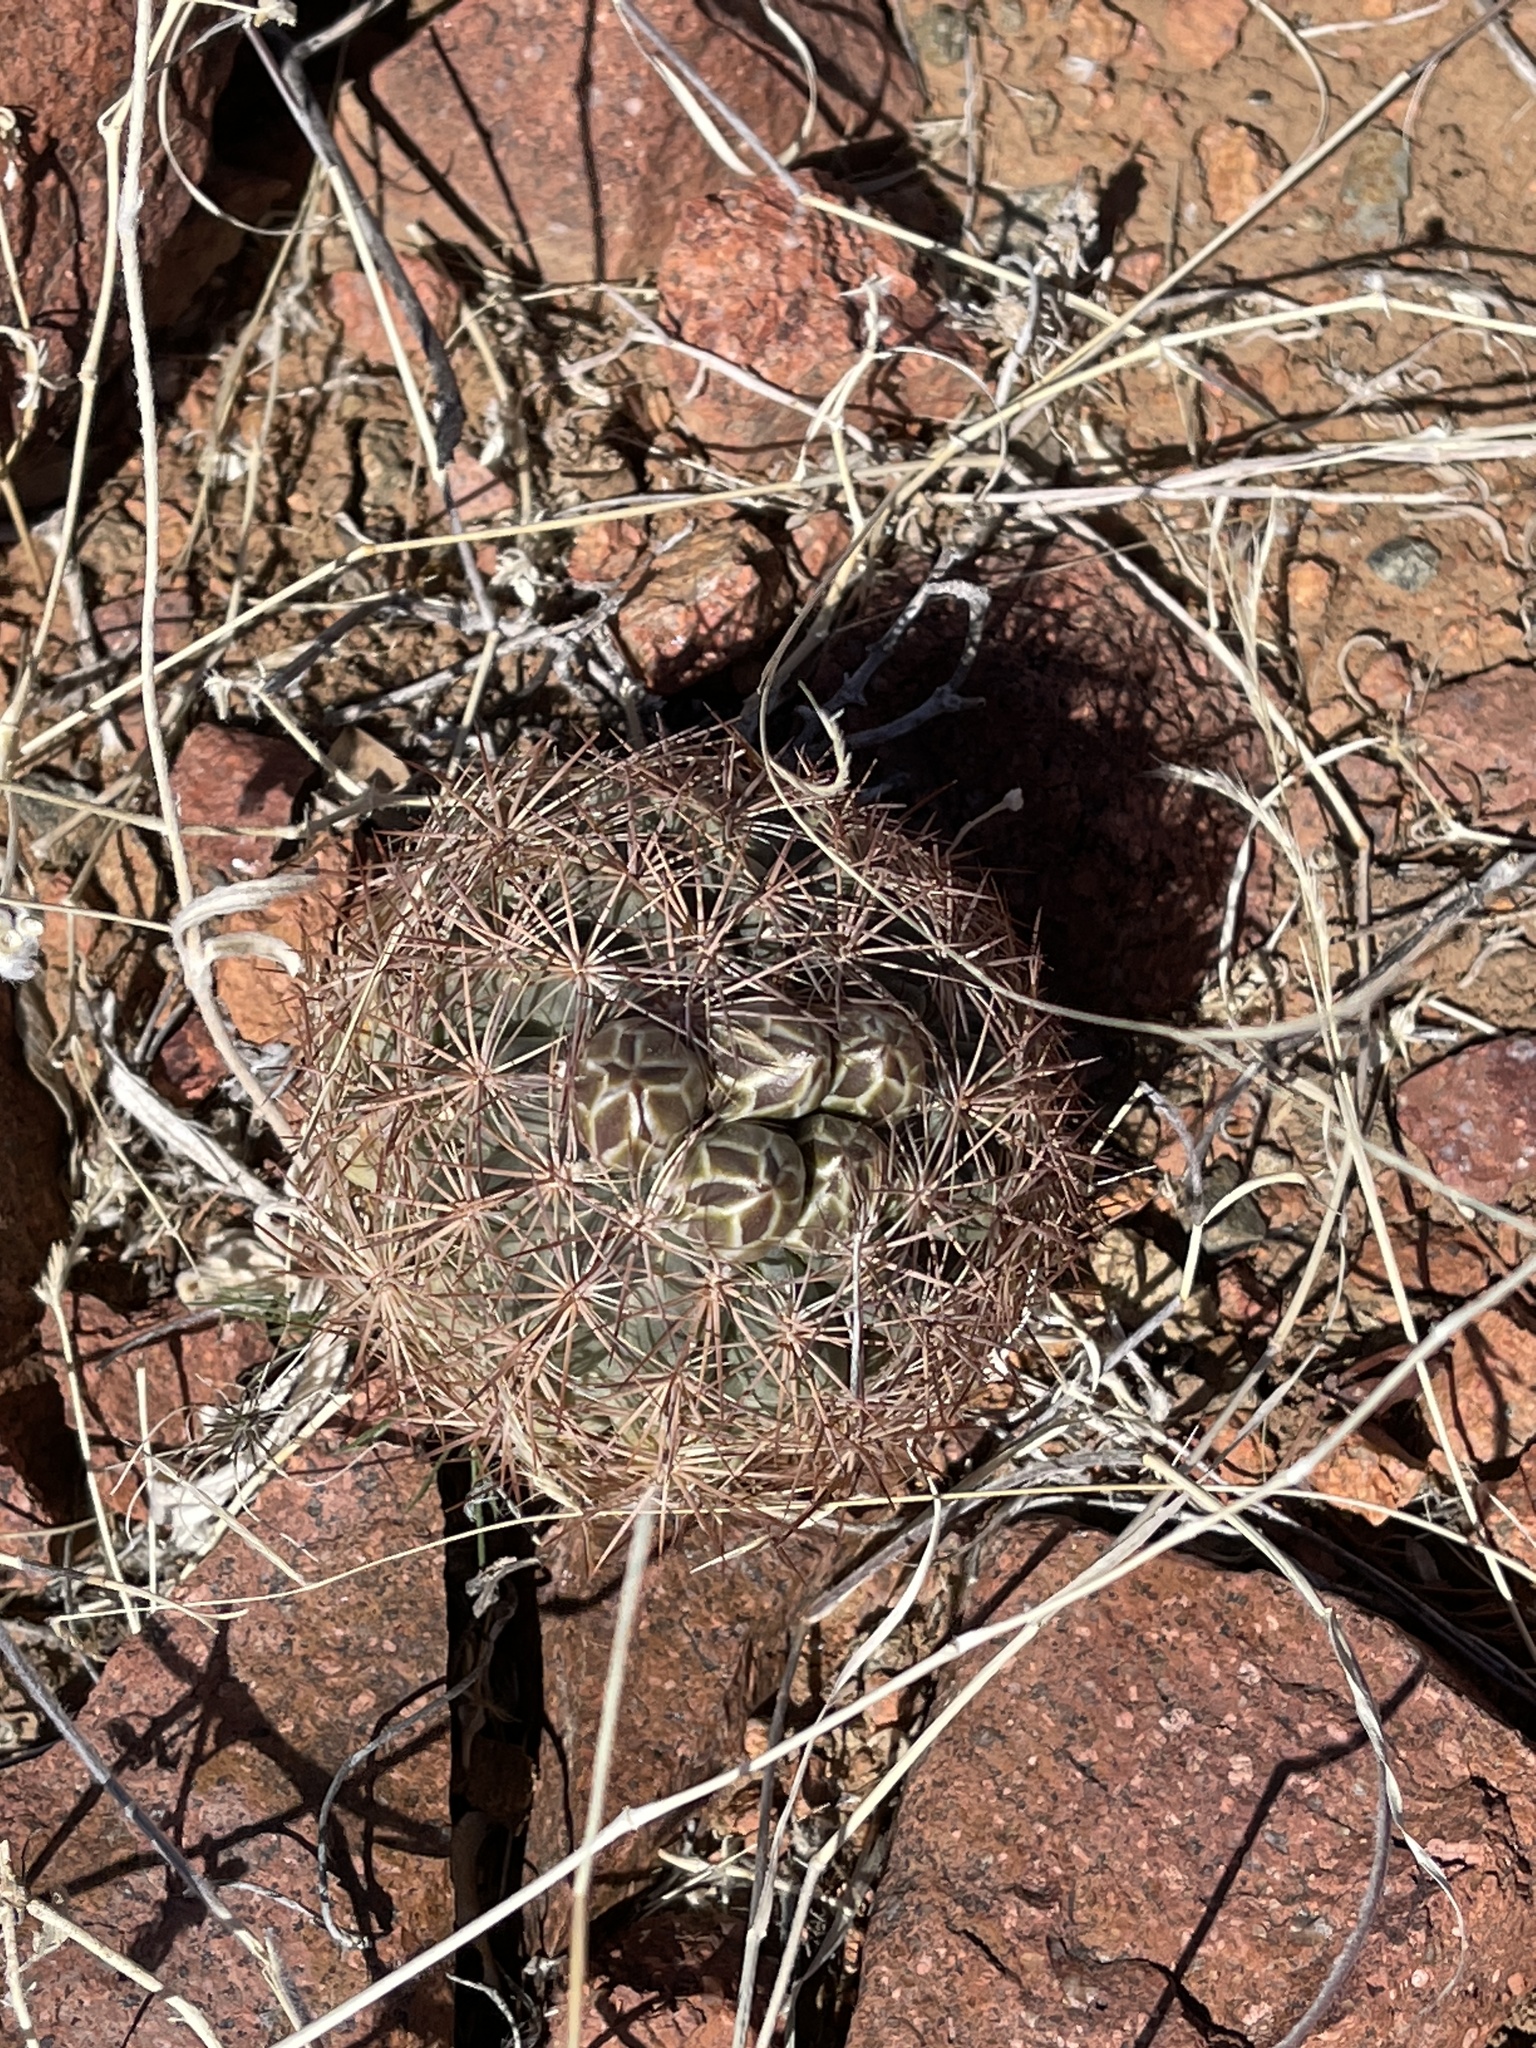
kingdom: Plantae
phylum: Tracheophyta
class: Magnoliopsida
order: Caryophyllales
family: Cactaceae
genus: Sclerocactus
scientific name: Sclerocactus intertextus
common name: White fish-hook cactus
